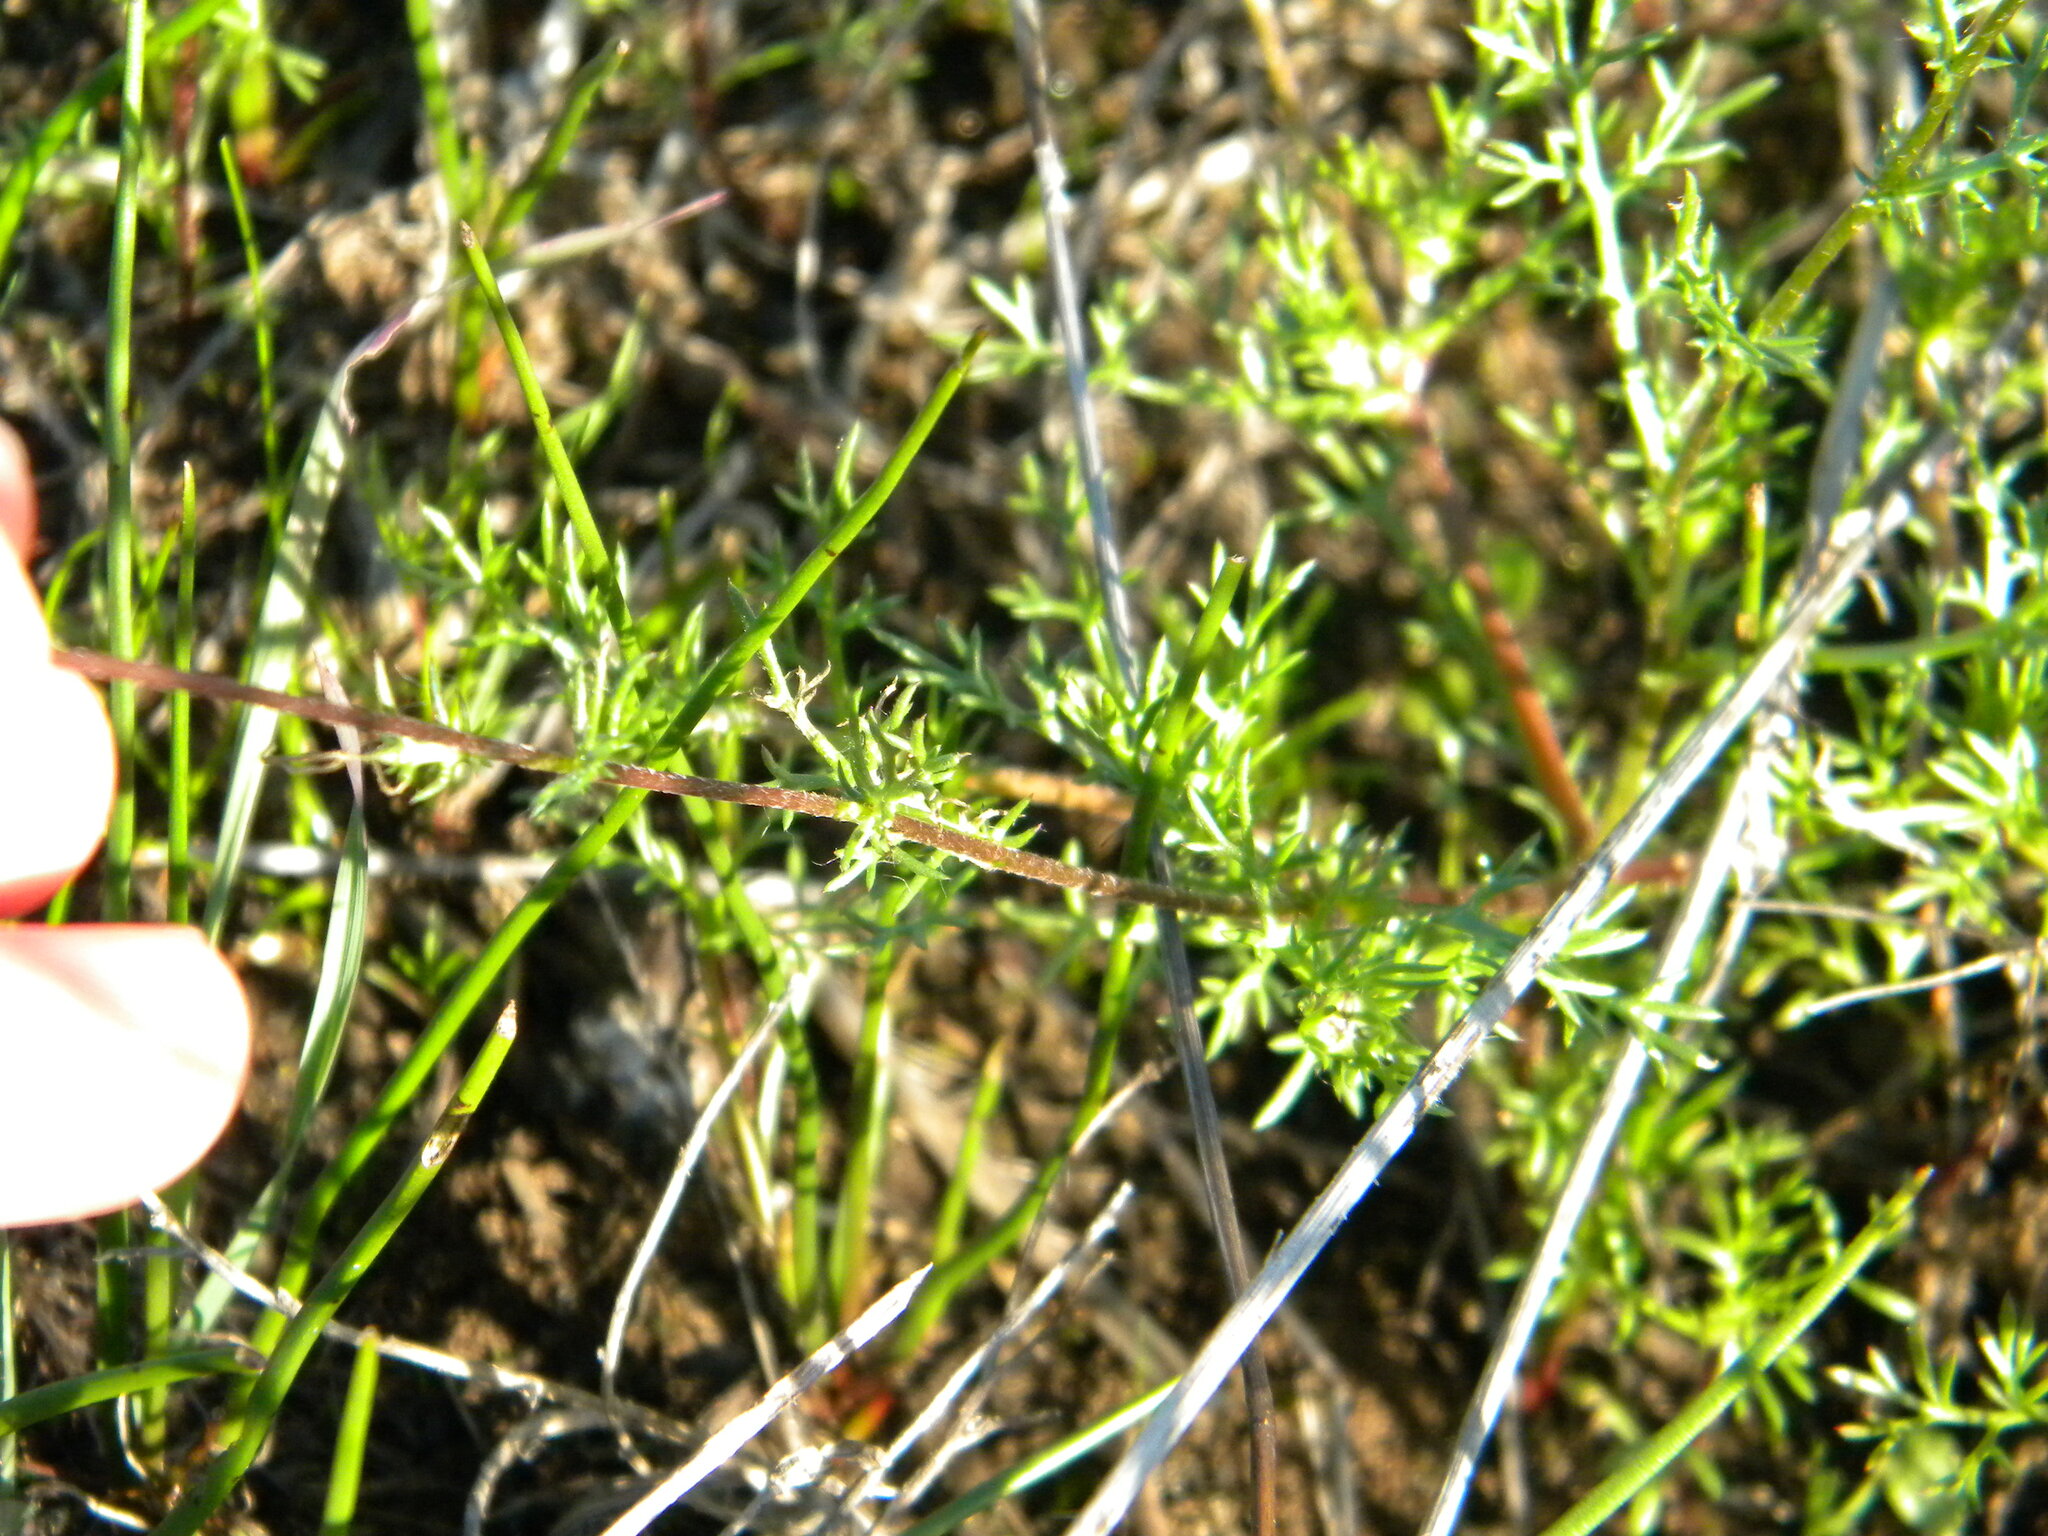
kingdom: Plantae
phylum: Tracheophyta
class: Magnoliopsida
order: Asterales
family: Asteraceae
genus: Cotula
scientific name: Cotula pruinosa
